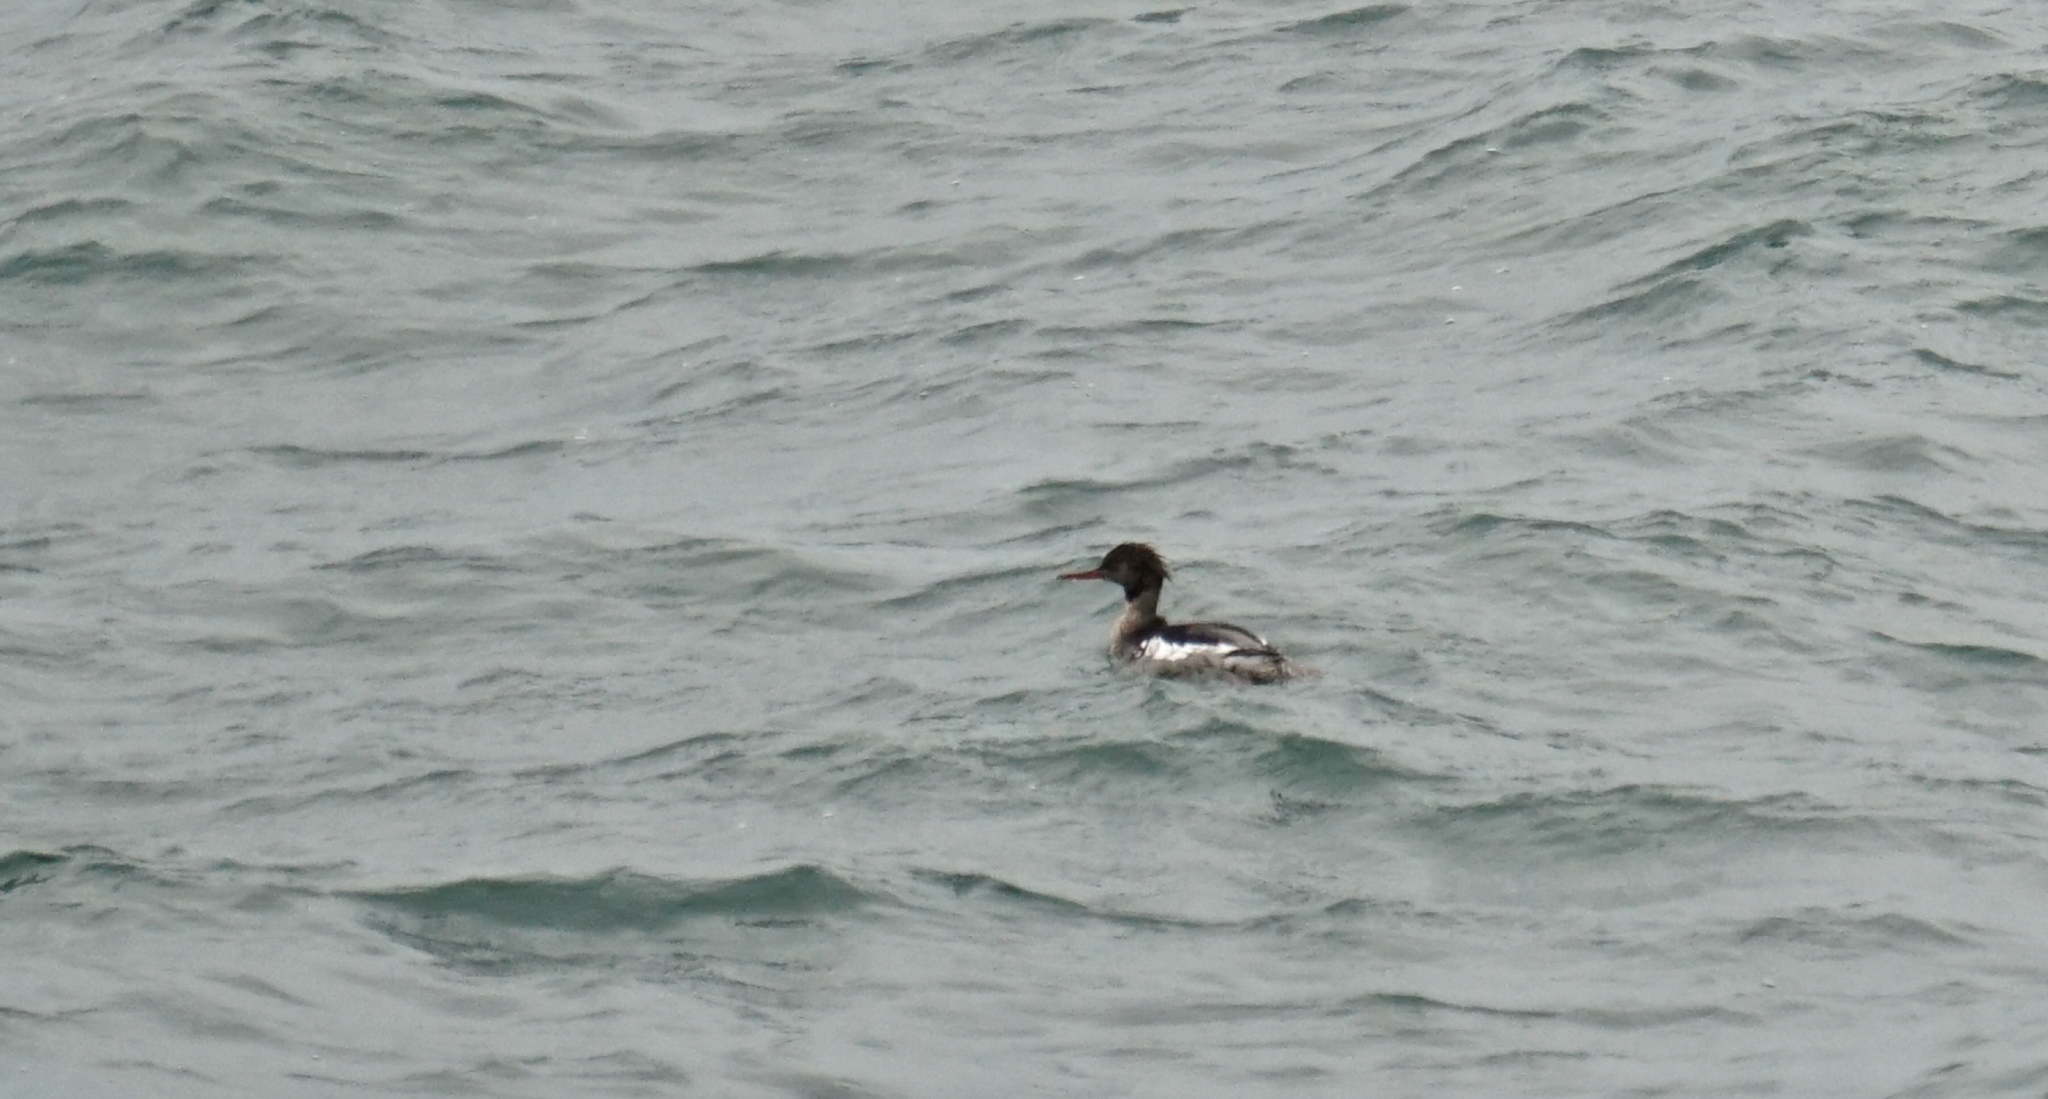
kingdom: Animalia
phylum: Chordata
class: Aves
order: Anseriformes
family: Anatidae
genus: Mergus
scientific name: Mergus serrator
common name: Red-breasted merganser
